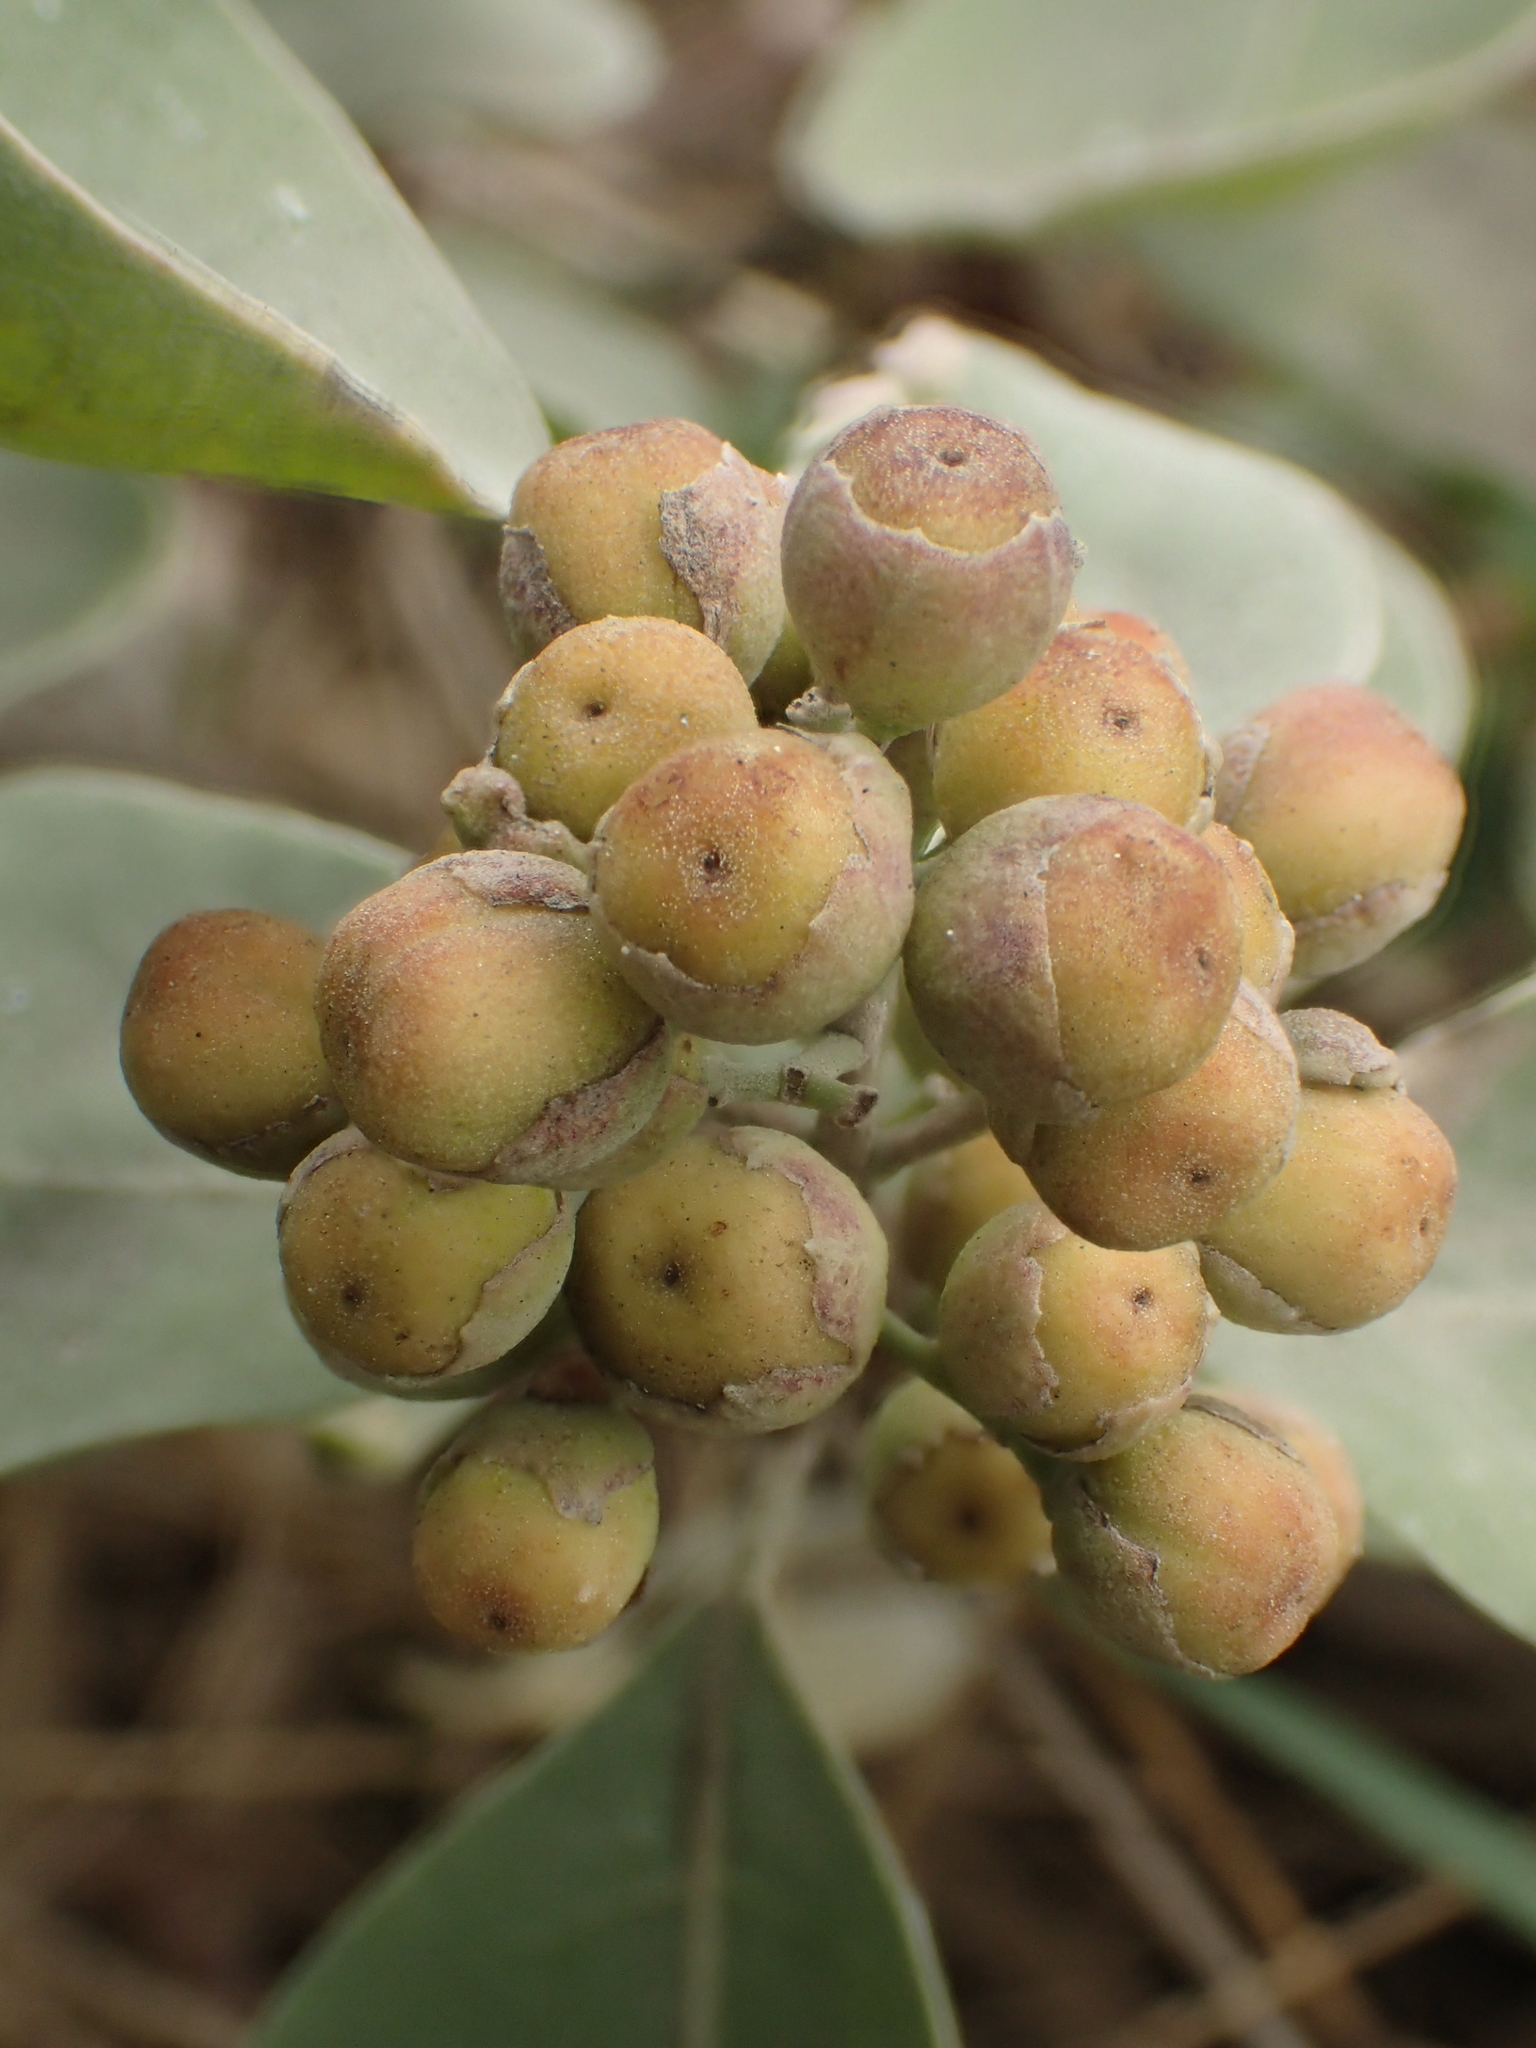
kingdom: Plantae
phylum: Tracheophyta
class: Magnoliopsida
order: Lamiales
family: Lamiaceae
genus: Vitex
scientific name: Vitex rotundifolia
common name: Beach vitex
